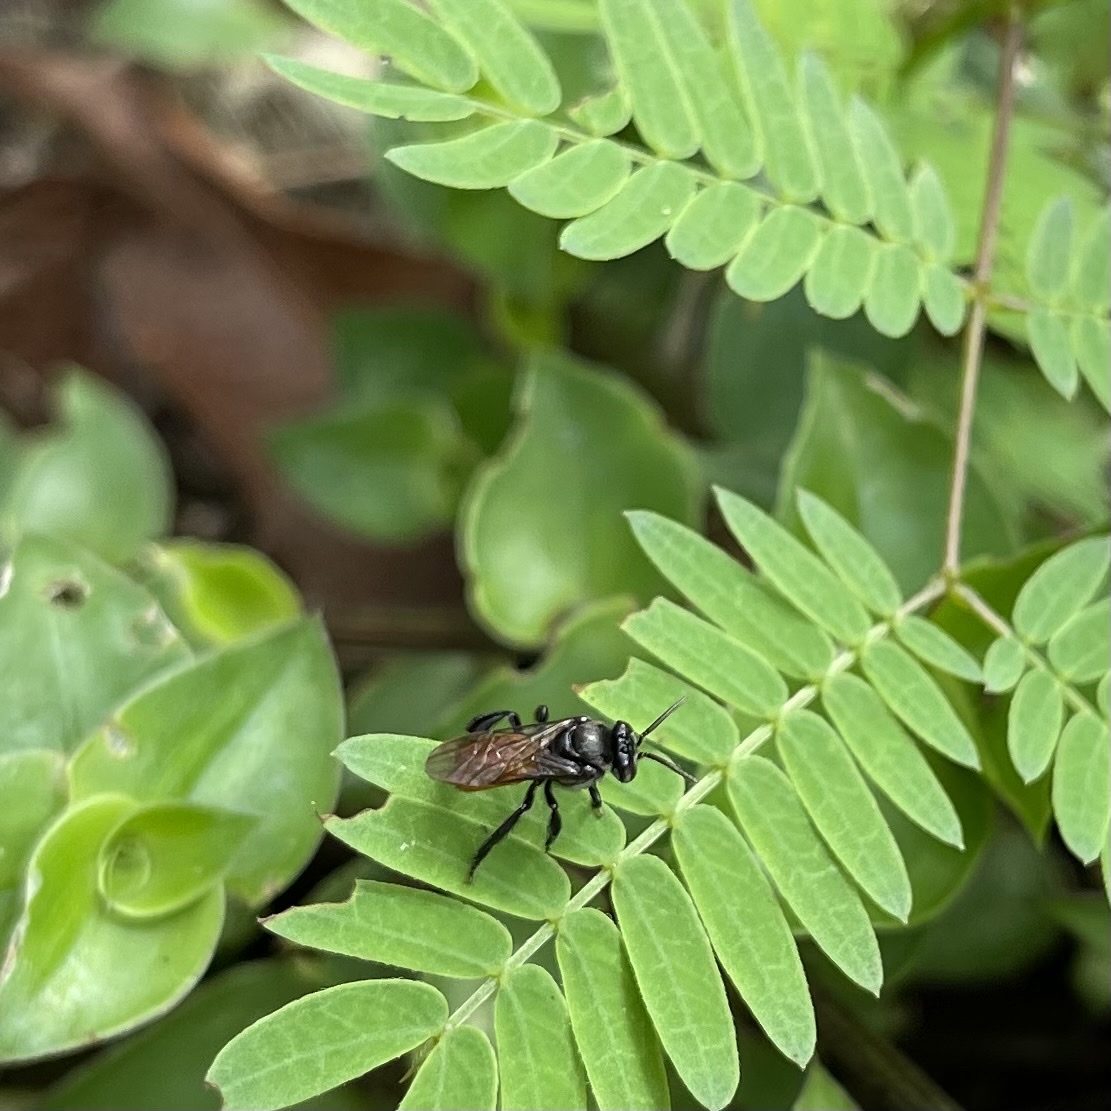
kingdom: Animalia
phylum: Arthropoda
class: Insecta
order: Hymenoptera
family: Apidae
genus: Trigona
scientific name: Trigona fulviventris
